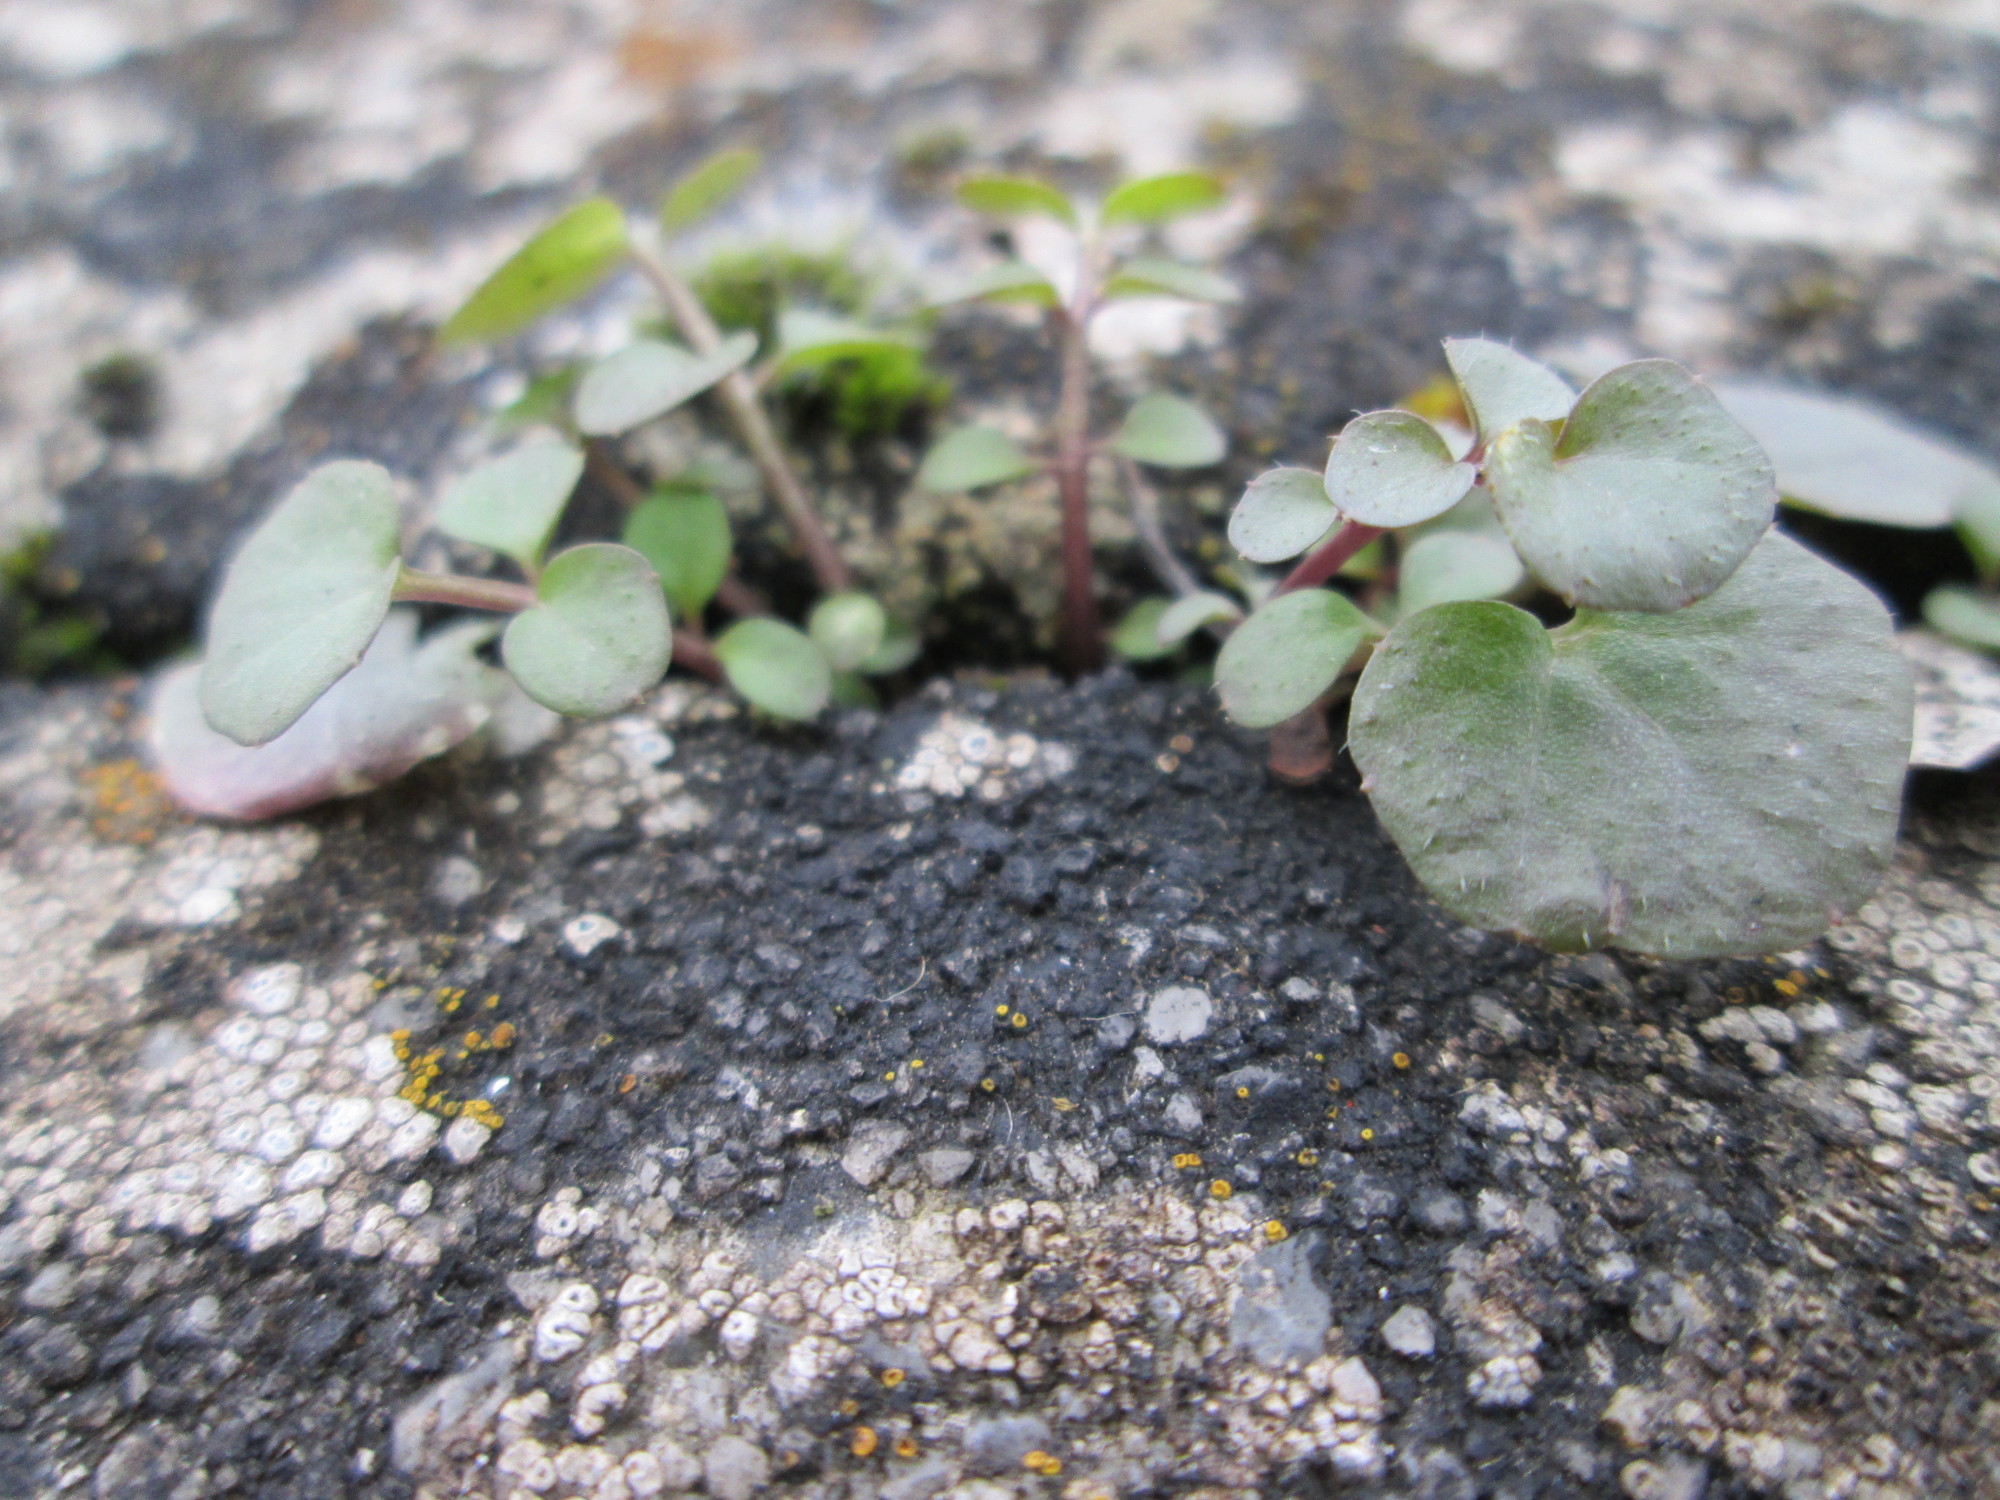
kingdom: Plantae
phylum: Tracheophyta
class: Magnoliopsida
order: Brassicales
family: Brassicaceae
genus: Cardamine
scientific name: Cardamine hirsuta
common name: Hairy bittercress
